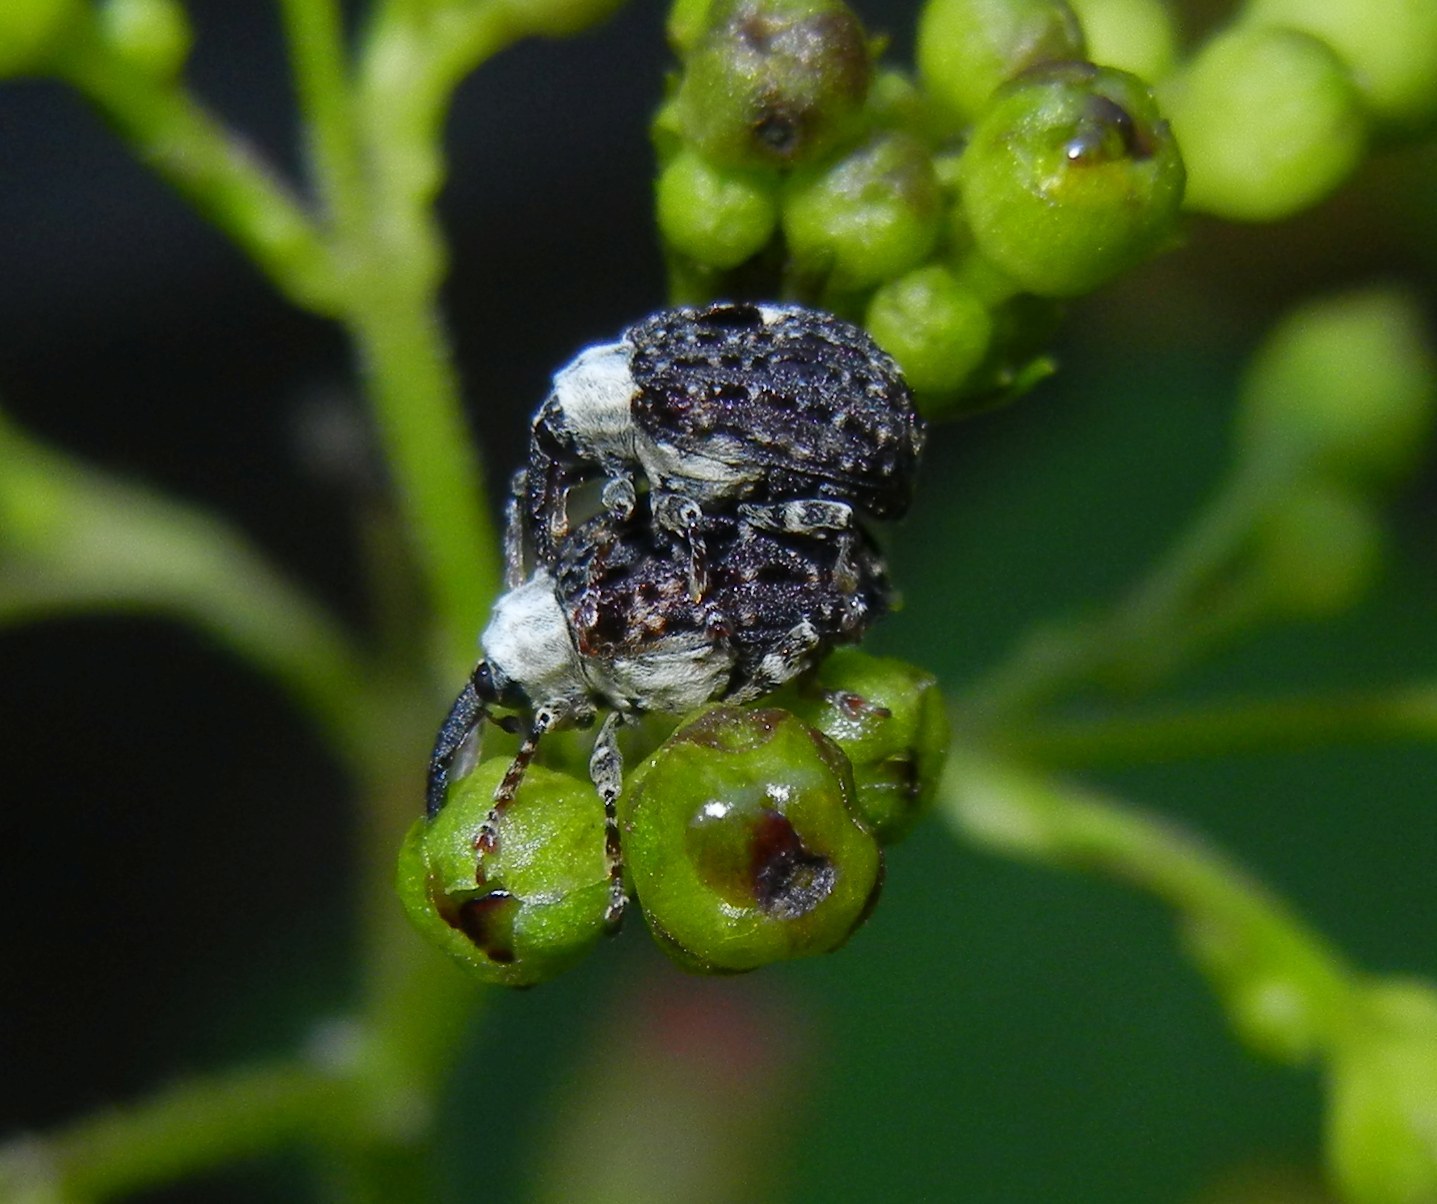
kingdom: Animalia
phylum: Arthropoda
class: Insecta
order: Coleoptera
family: Curculionidae
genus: Cionus
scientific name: Cionus scrophulariae
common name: Common figwort weevil
